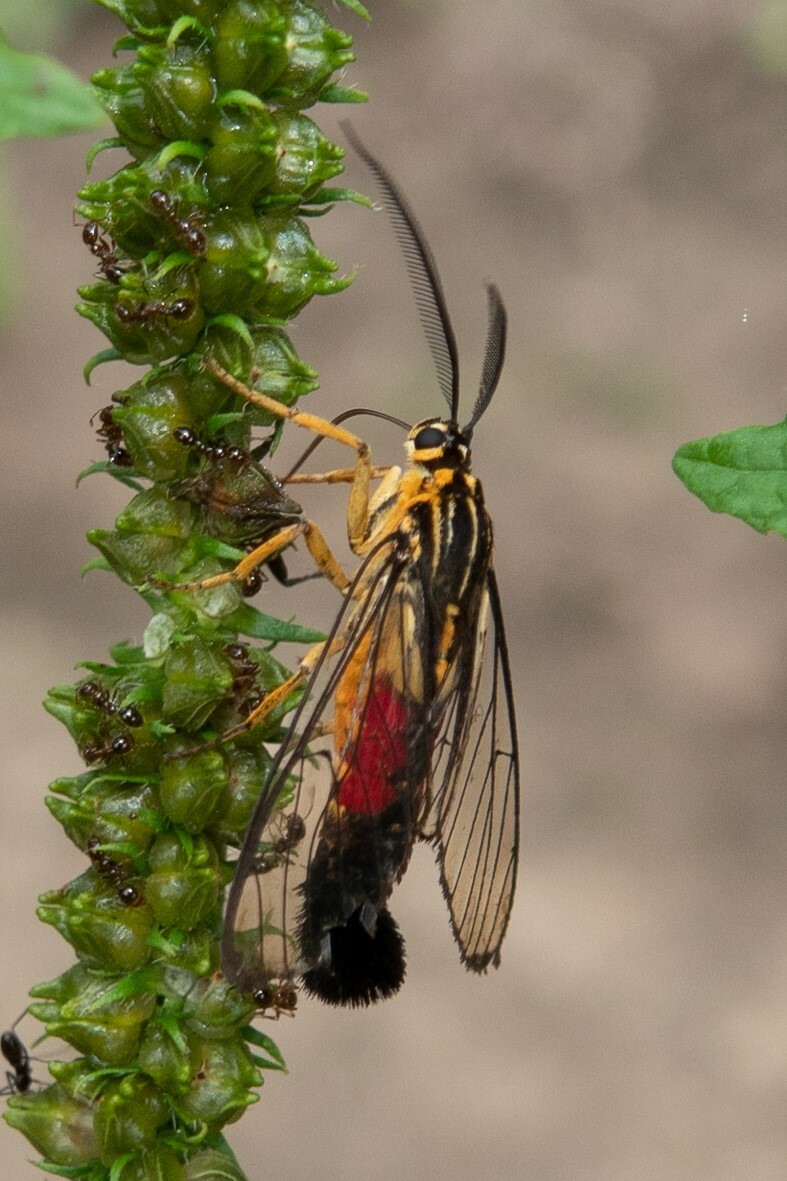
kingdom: Animalia
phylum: Arthropoda
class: Insecta
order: Lepidoptera
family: Erebidae
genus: Corematura
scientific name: Corematura chrysogastra
